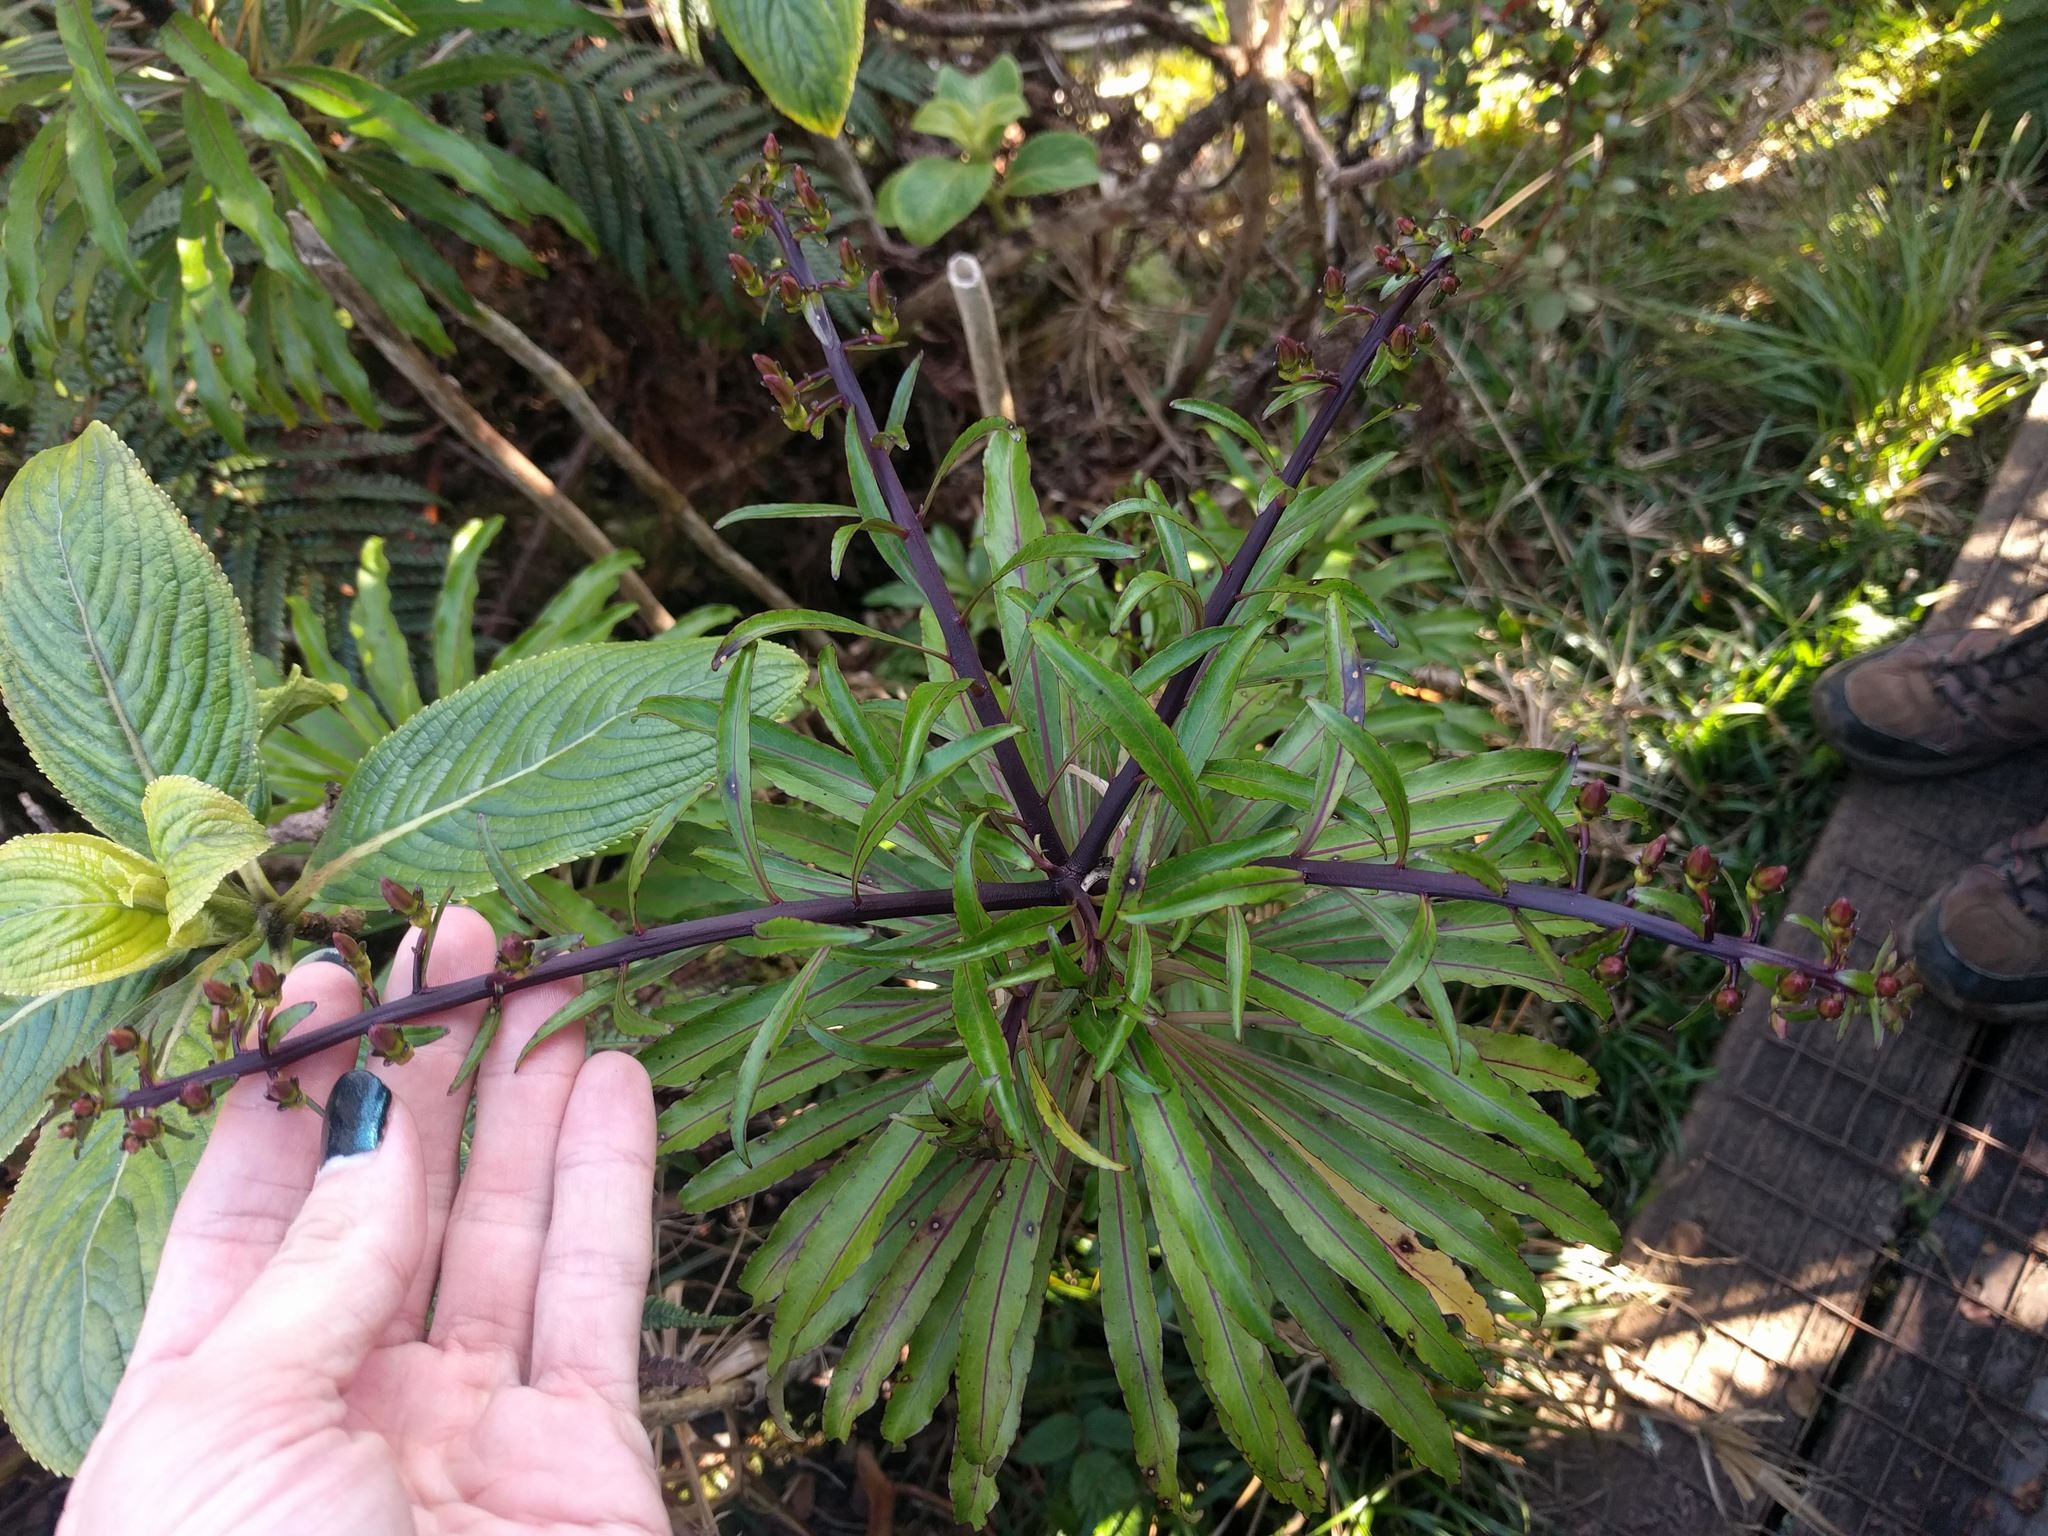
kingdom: Plantae
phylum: Tracheophyta
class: Magnoliopsida
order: Asterales
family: Campanulaceae
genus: Trematolobelia
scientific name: Trematolobelia kaalae
